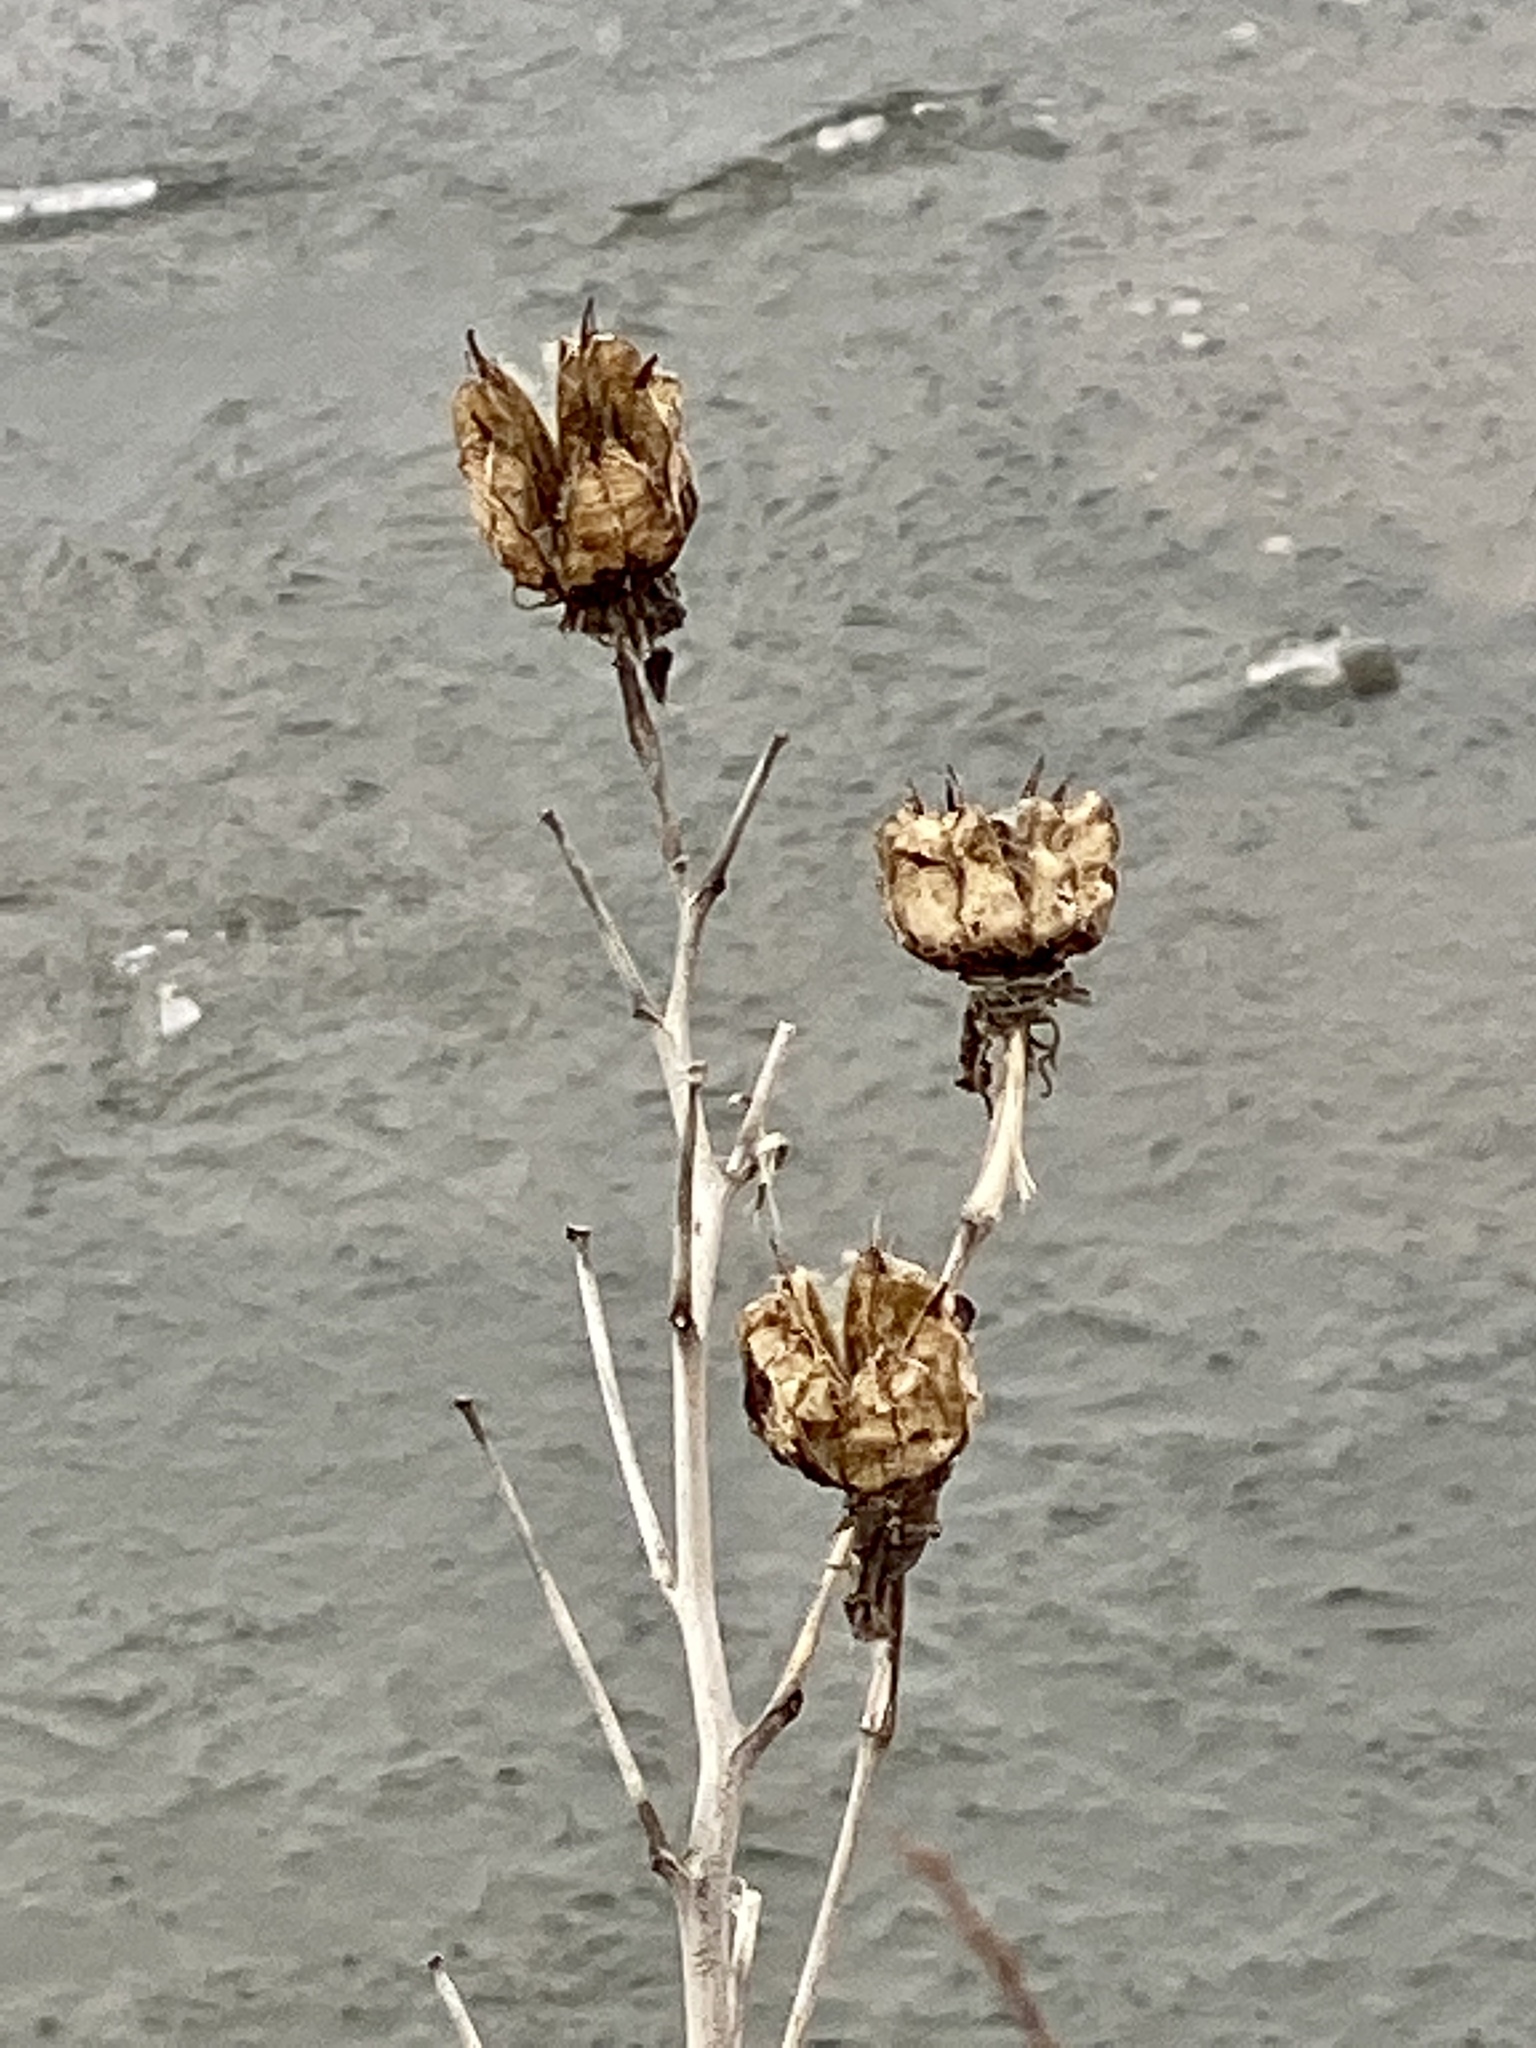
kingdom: Plantae
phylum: Tracheophyta
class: Magnoliopsida
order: Malvales
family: Malvaceae
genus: Hibiscus
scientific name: Hibiscus moscheutos
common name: Common rose-mallow
